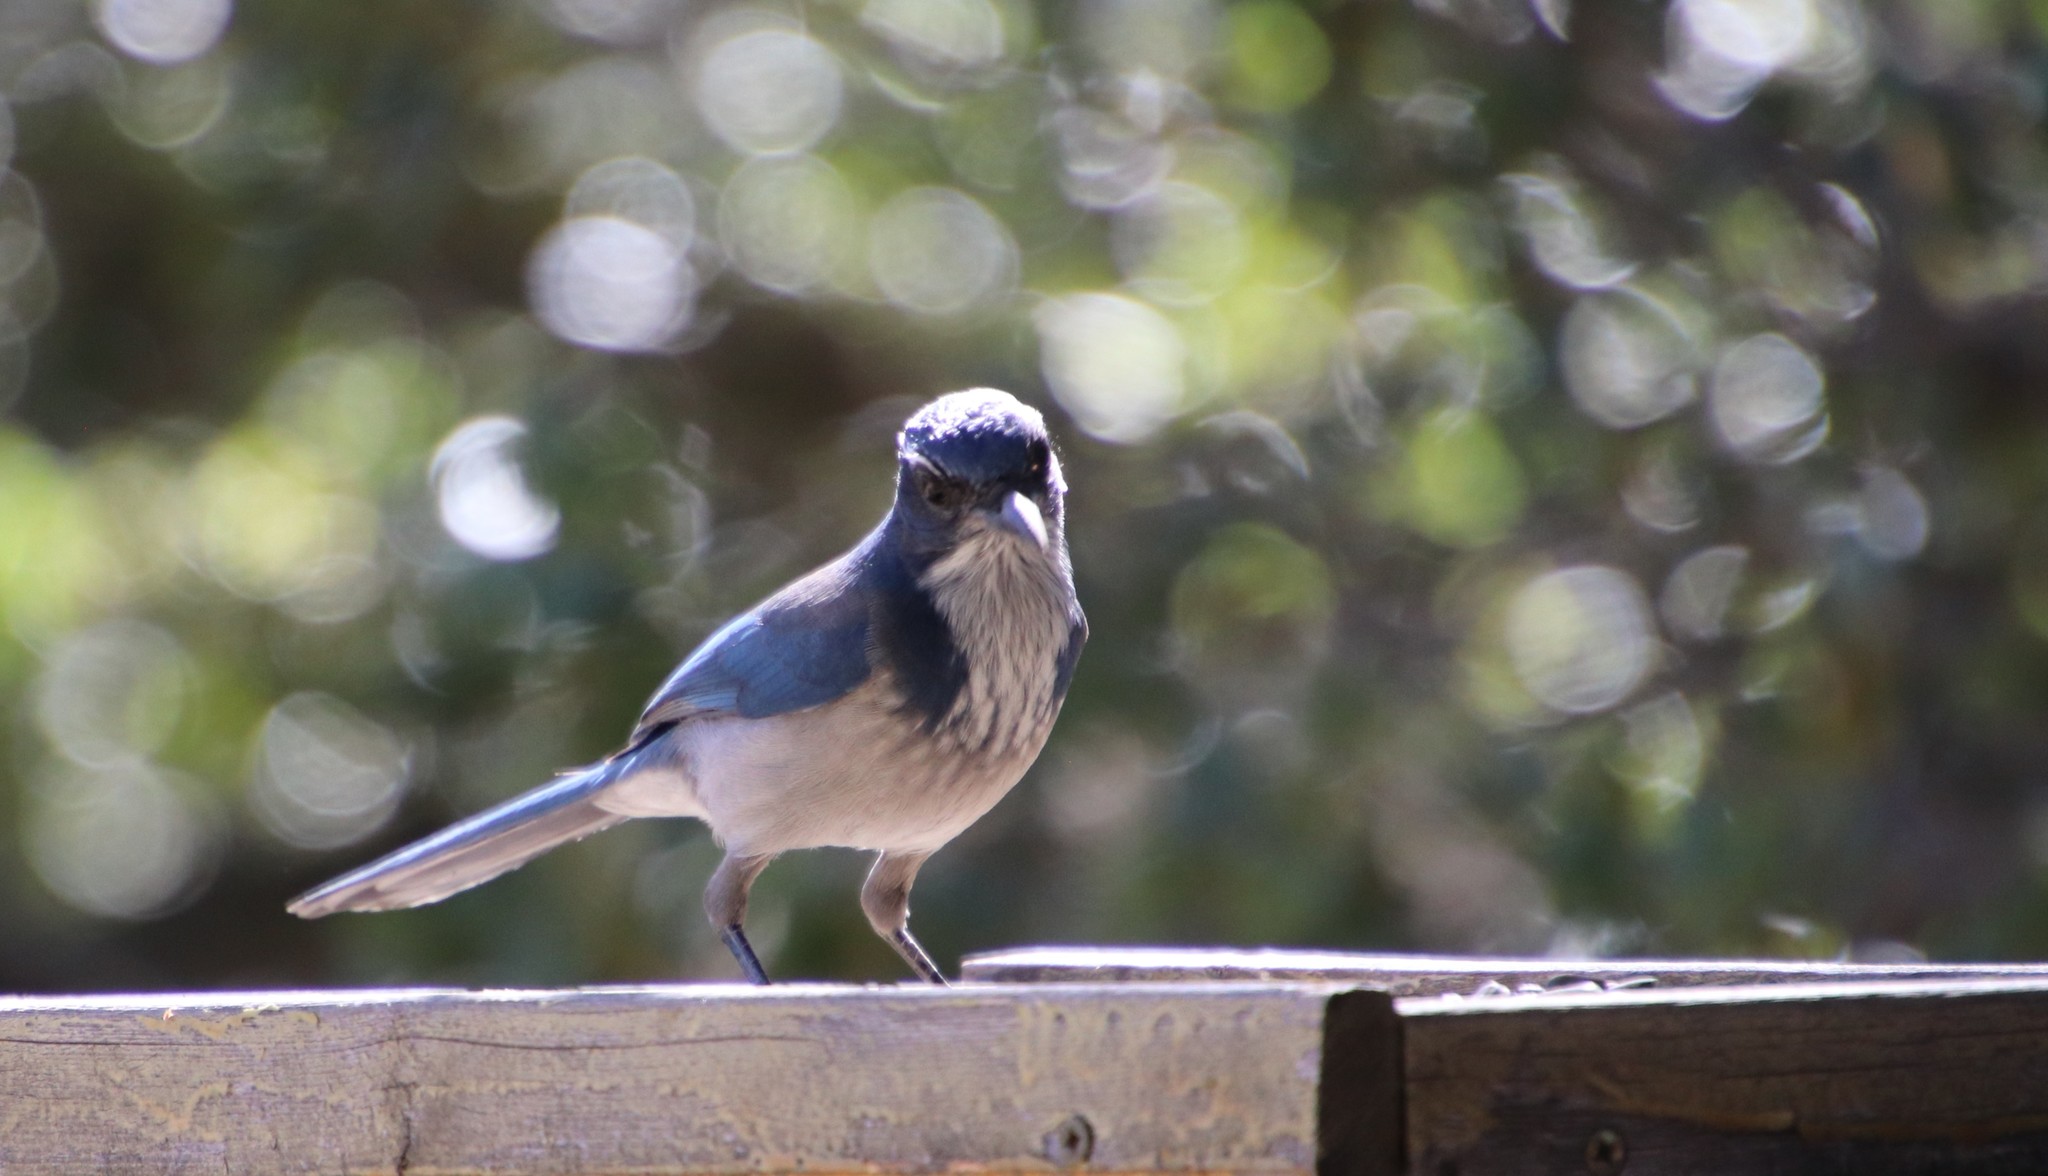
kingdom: Animalia
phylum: Chordata
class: Aves
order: Passeriformes
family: Corvidae
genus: Aphelocoma
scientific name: Aphelocoma californica
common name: California scrub-jay
